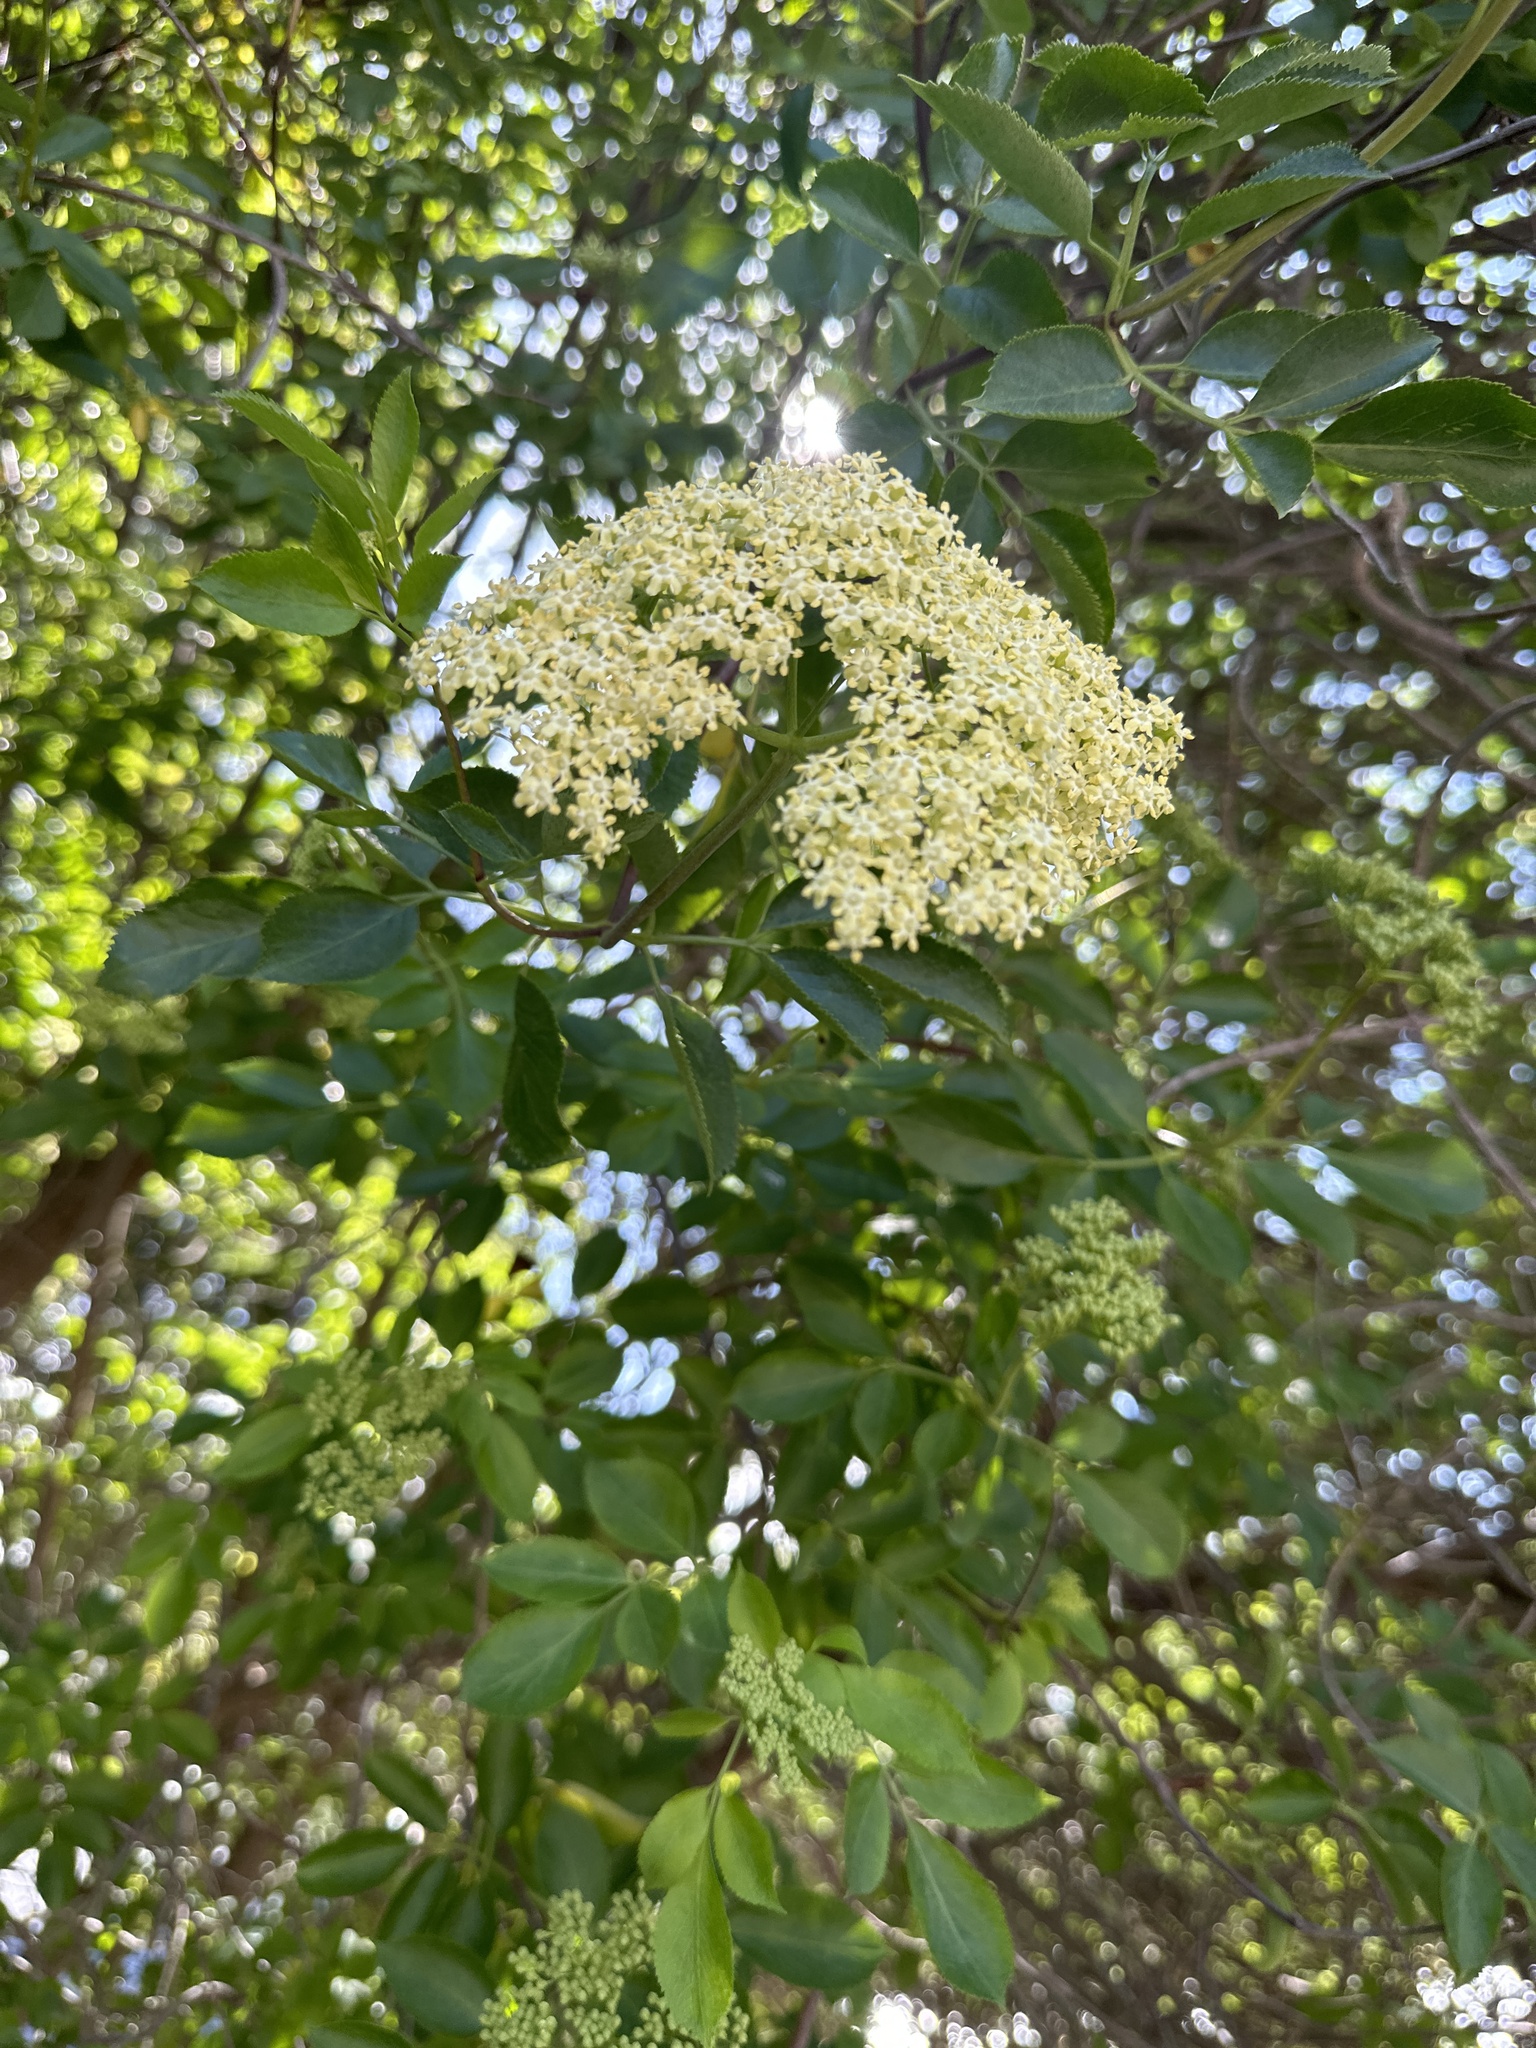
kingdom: Plantae
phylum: Tracheophyta
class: Magnoliopsida
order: Dipsacales
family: Viburnaceae
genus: Sambucus
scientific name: Sambucus cerulea
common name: Blue elder
